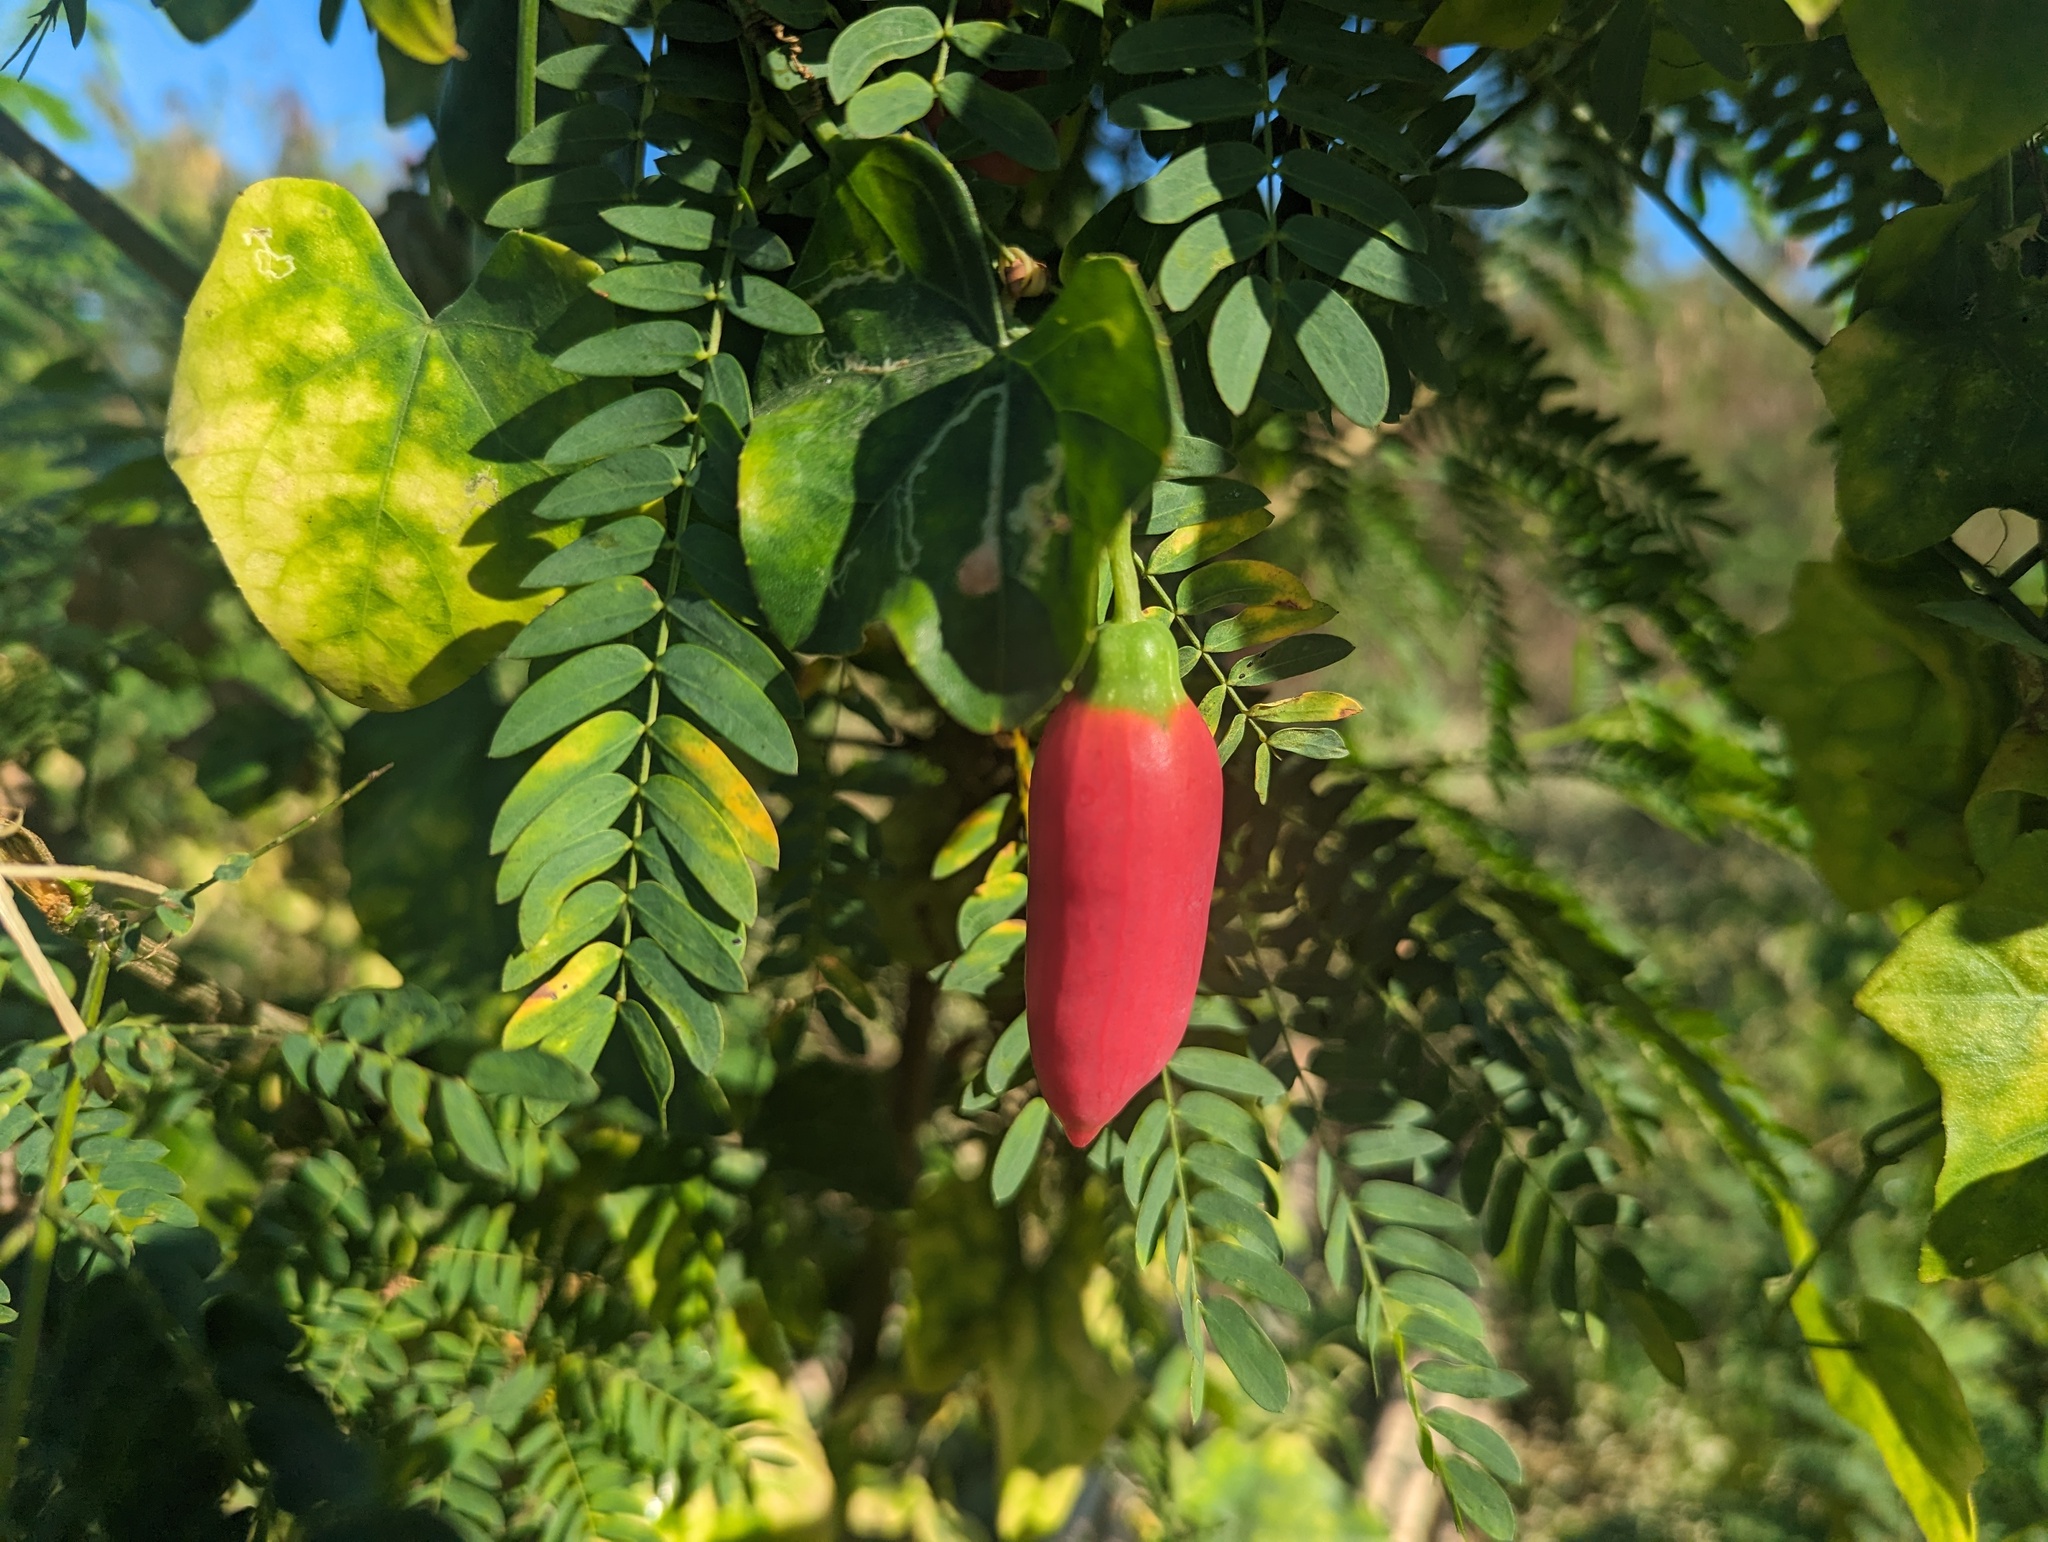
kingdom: Plantae
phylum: Tracheophyta
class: Magnoliopsida
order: Cucurbitales
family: Cucurbitaceae
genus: Coccinia
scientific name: Coccinia grandis
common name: Ivy gourd
